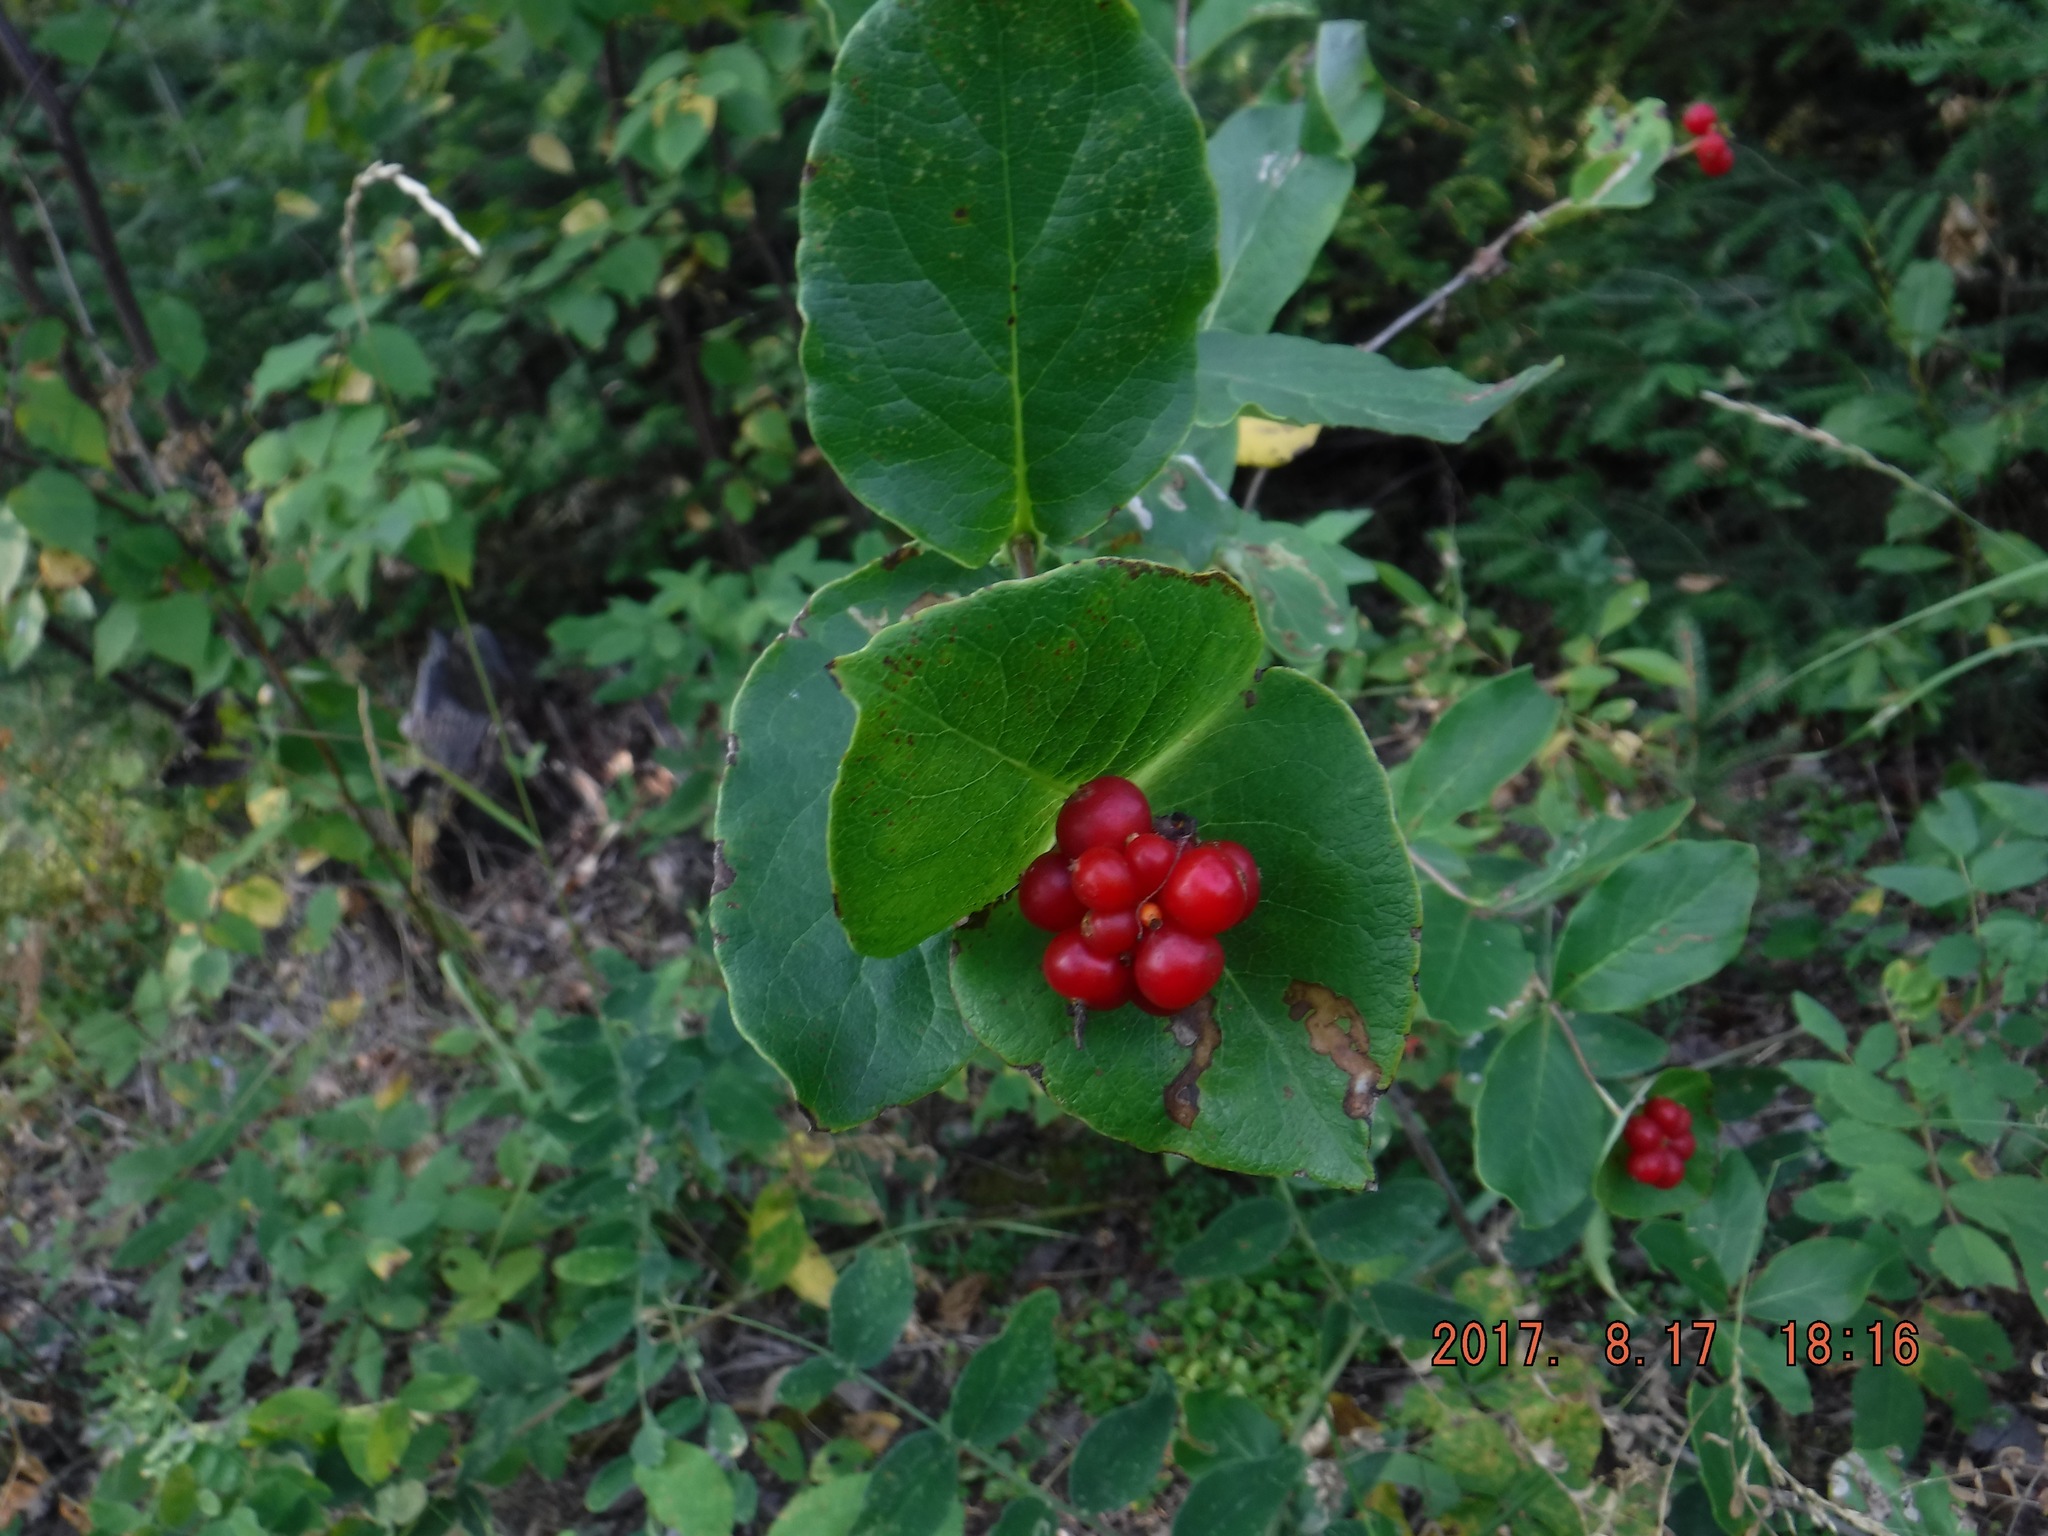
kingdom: Plantae
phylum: Tracheophyta
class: Magnoliopsida
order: Dipsacales
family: Caprifoliaceae
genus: Lonicera
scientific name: Lonicera dioica
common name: Limber honeysuckle
